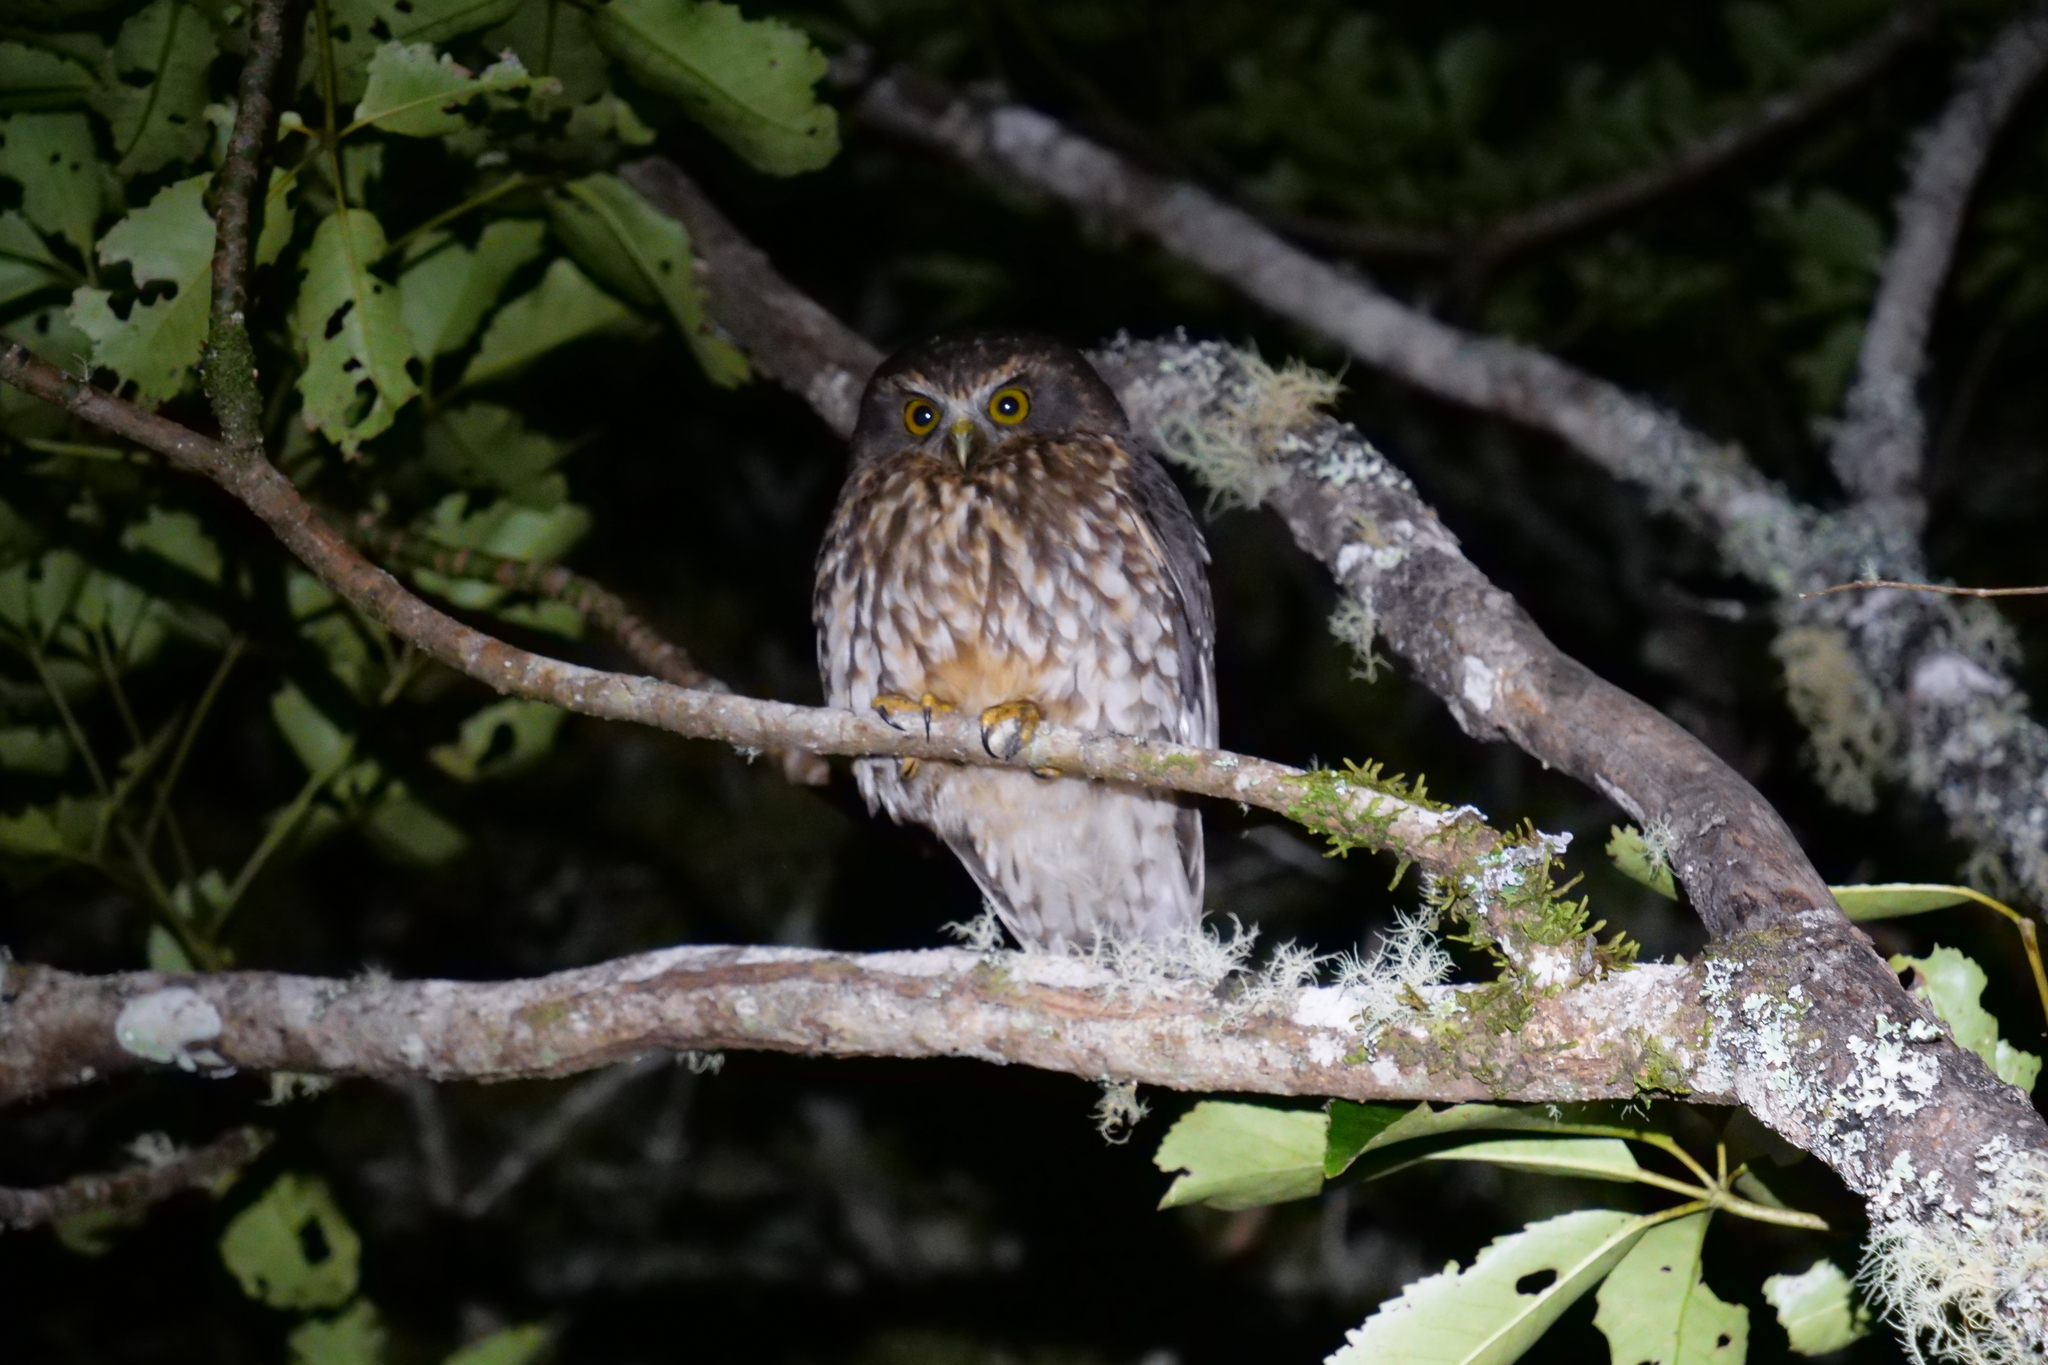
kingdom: Animalia
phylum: Chordata
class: Aves
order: Strigiformes
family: Strigidae
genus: Ninox
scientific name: Ninox novaeseelandiae
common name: Morepork
